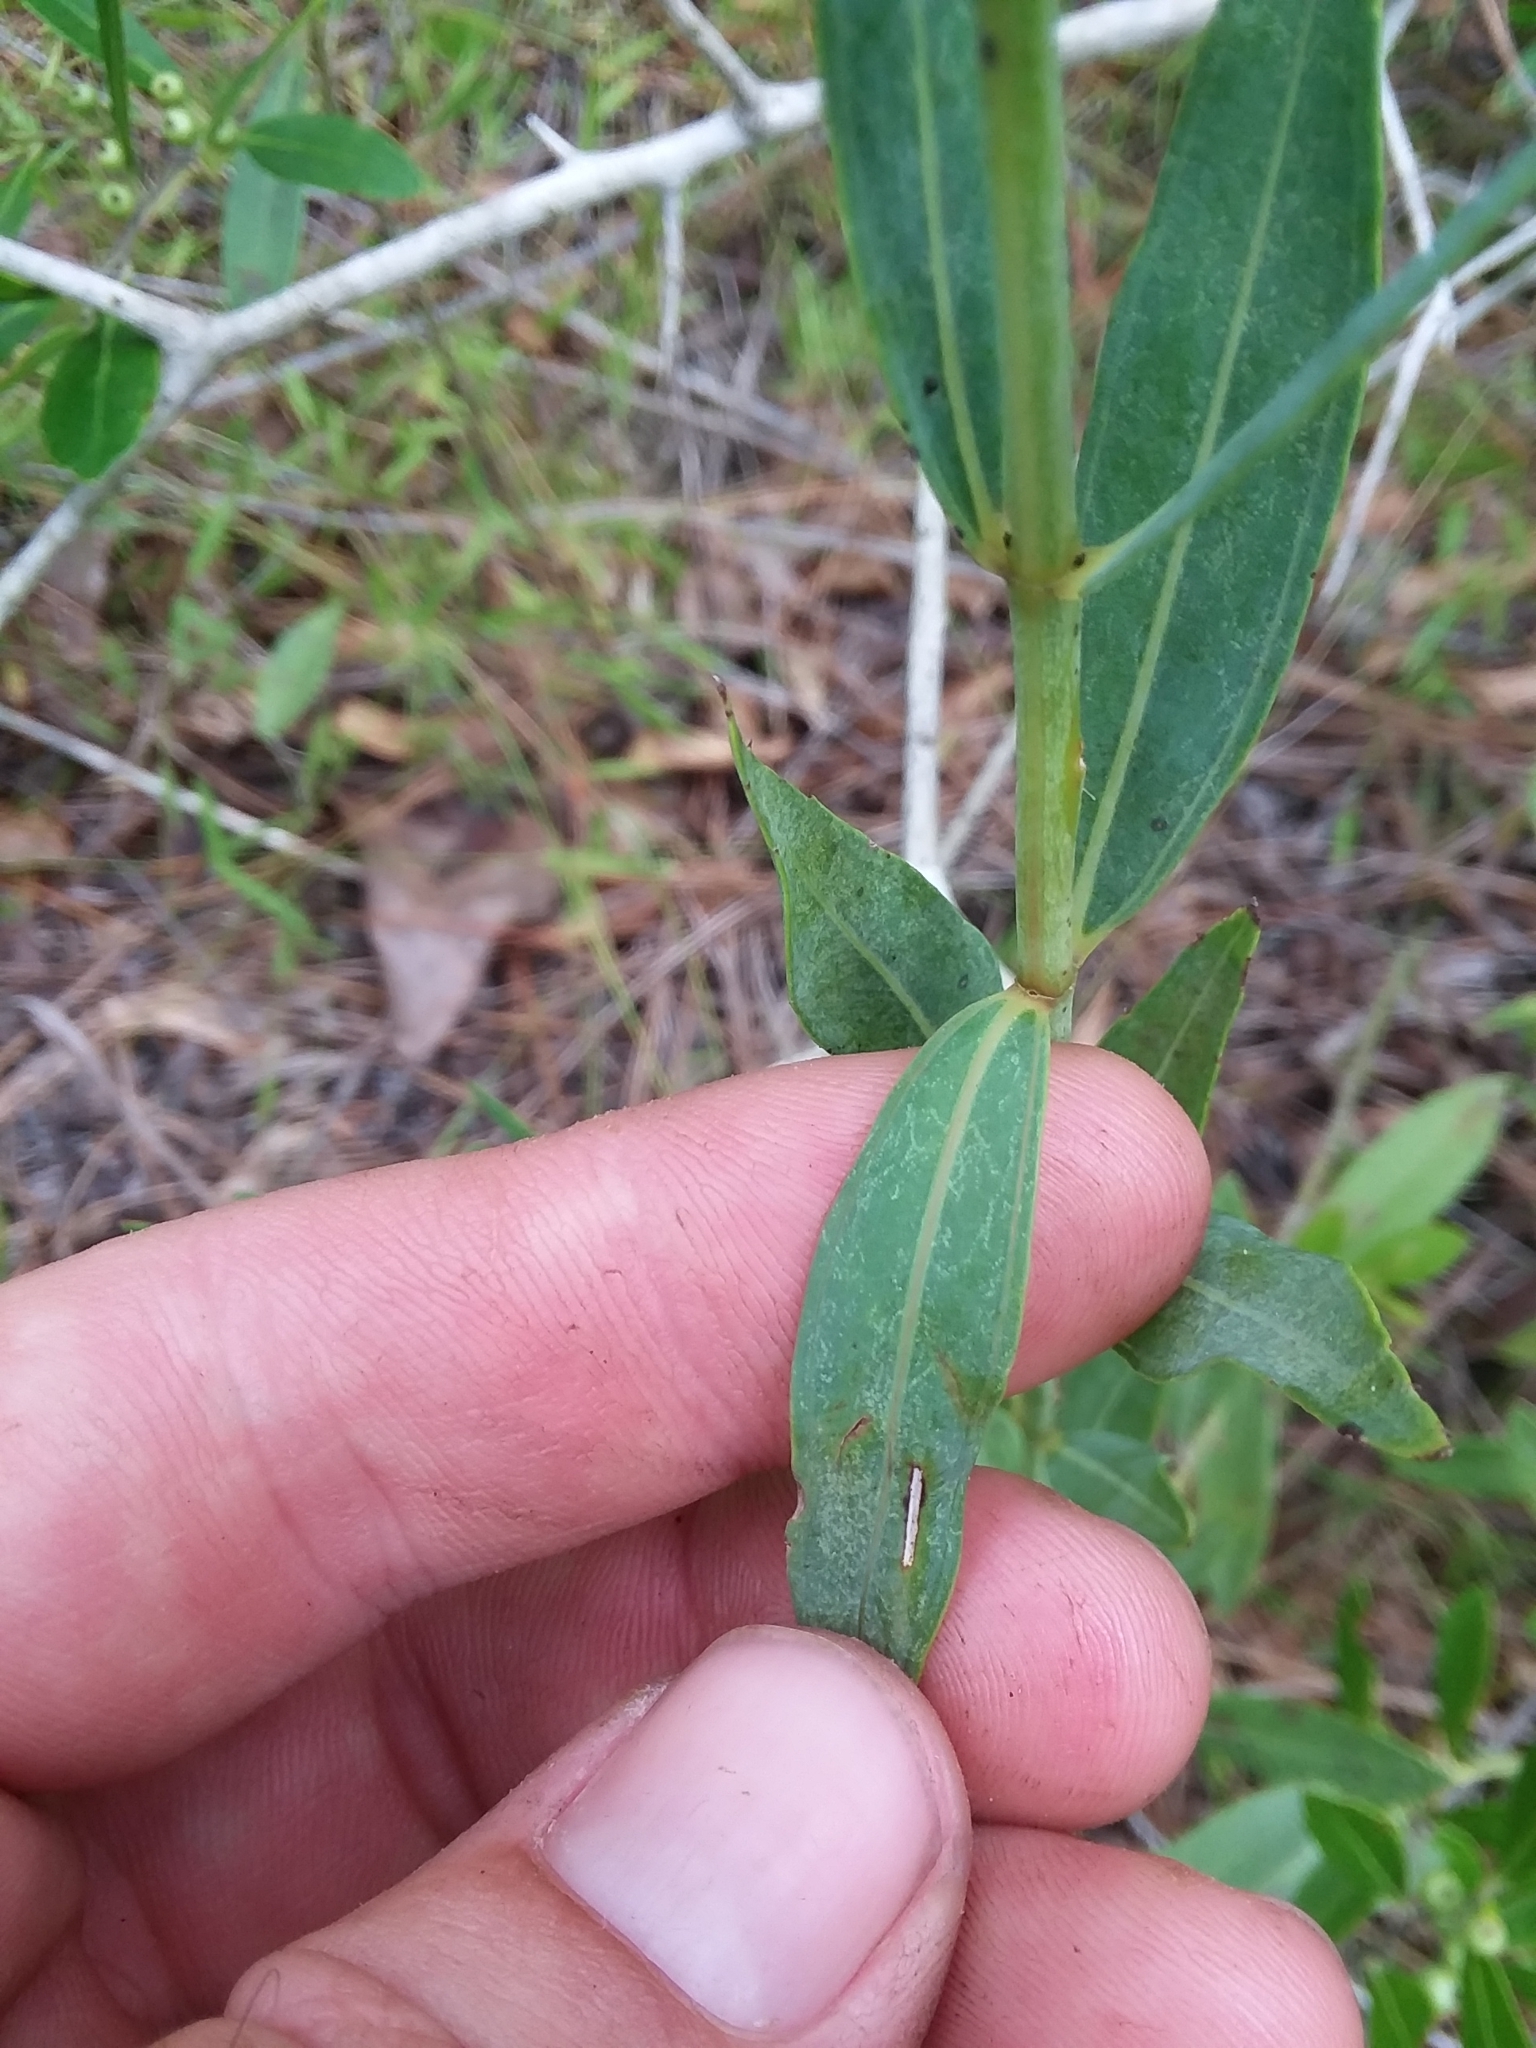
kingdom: Plantae
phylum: Tracheophyta
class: Magnoliopsida
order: Myrtales
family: Melastomataceae
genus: Rhexia
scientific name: Rhexia alifanus
